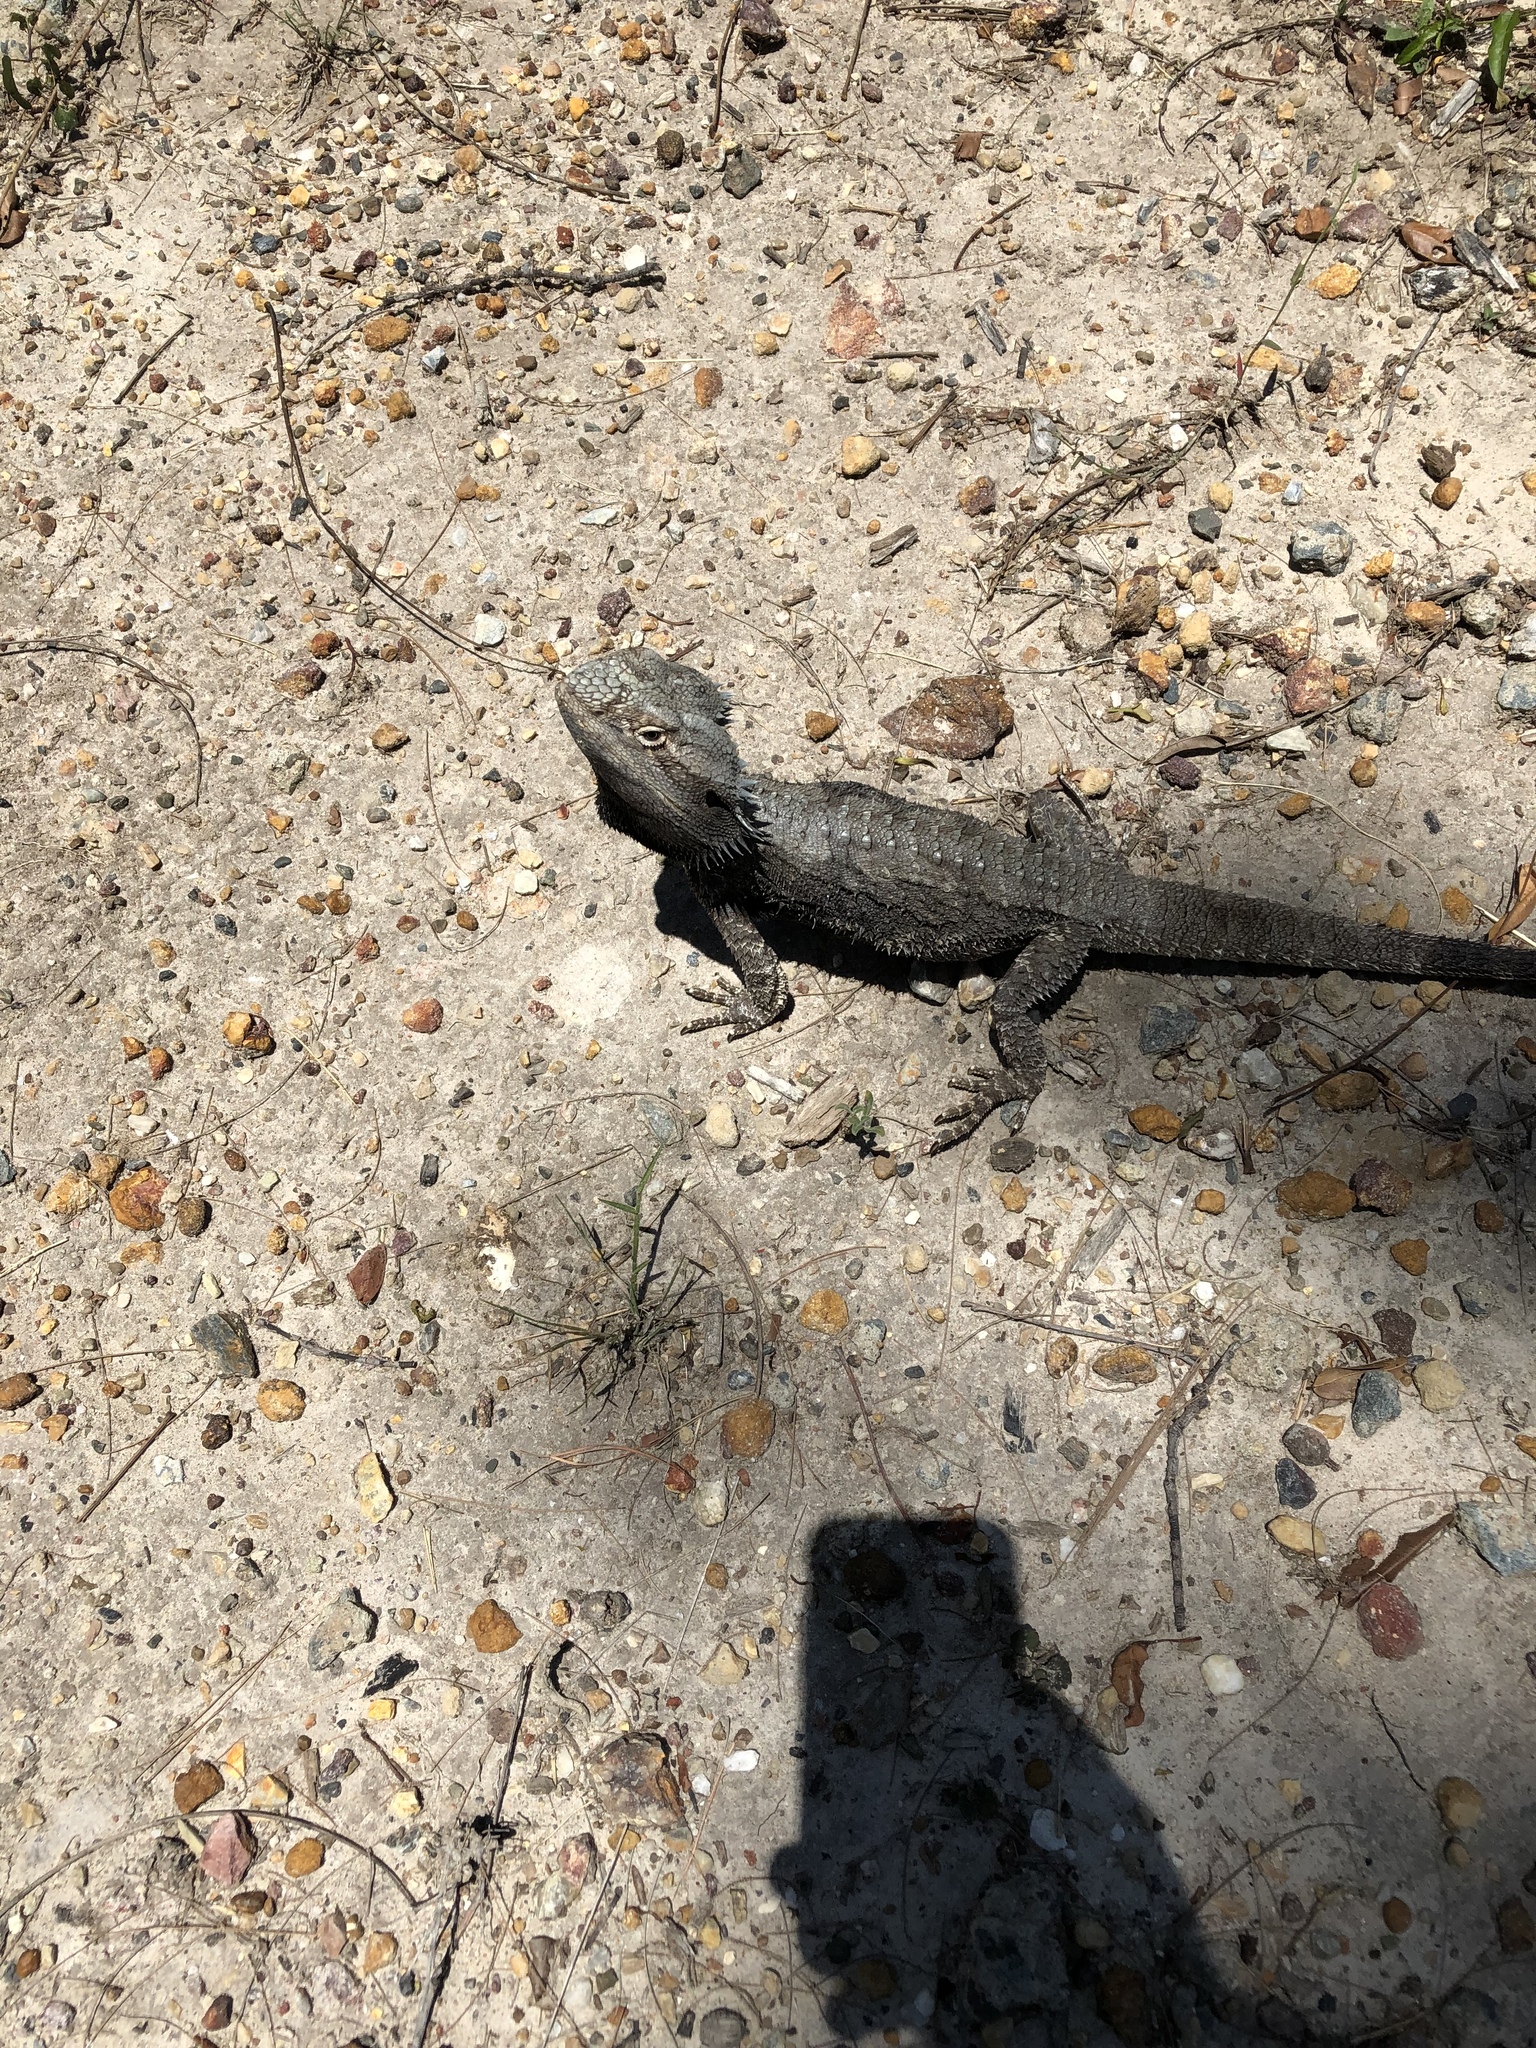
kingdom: Animalia
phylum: Chordata
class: Squamata
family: Agamidae
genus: Pogona
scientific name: Pogona barbata
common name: Bearded dragon
